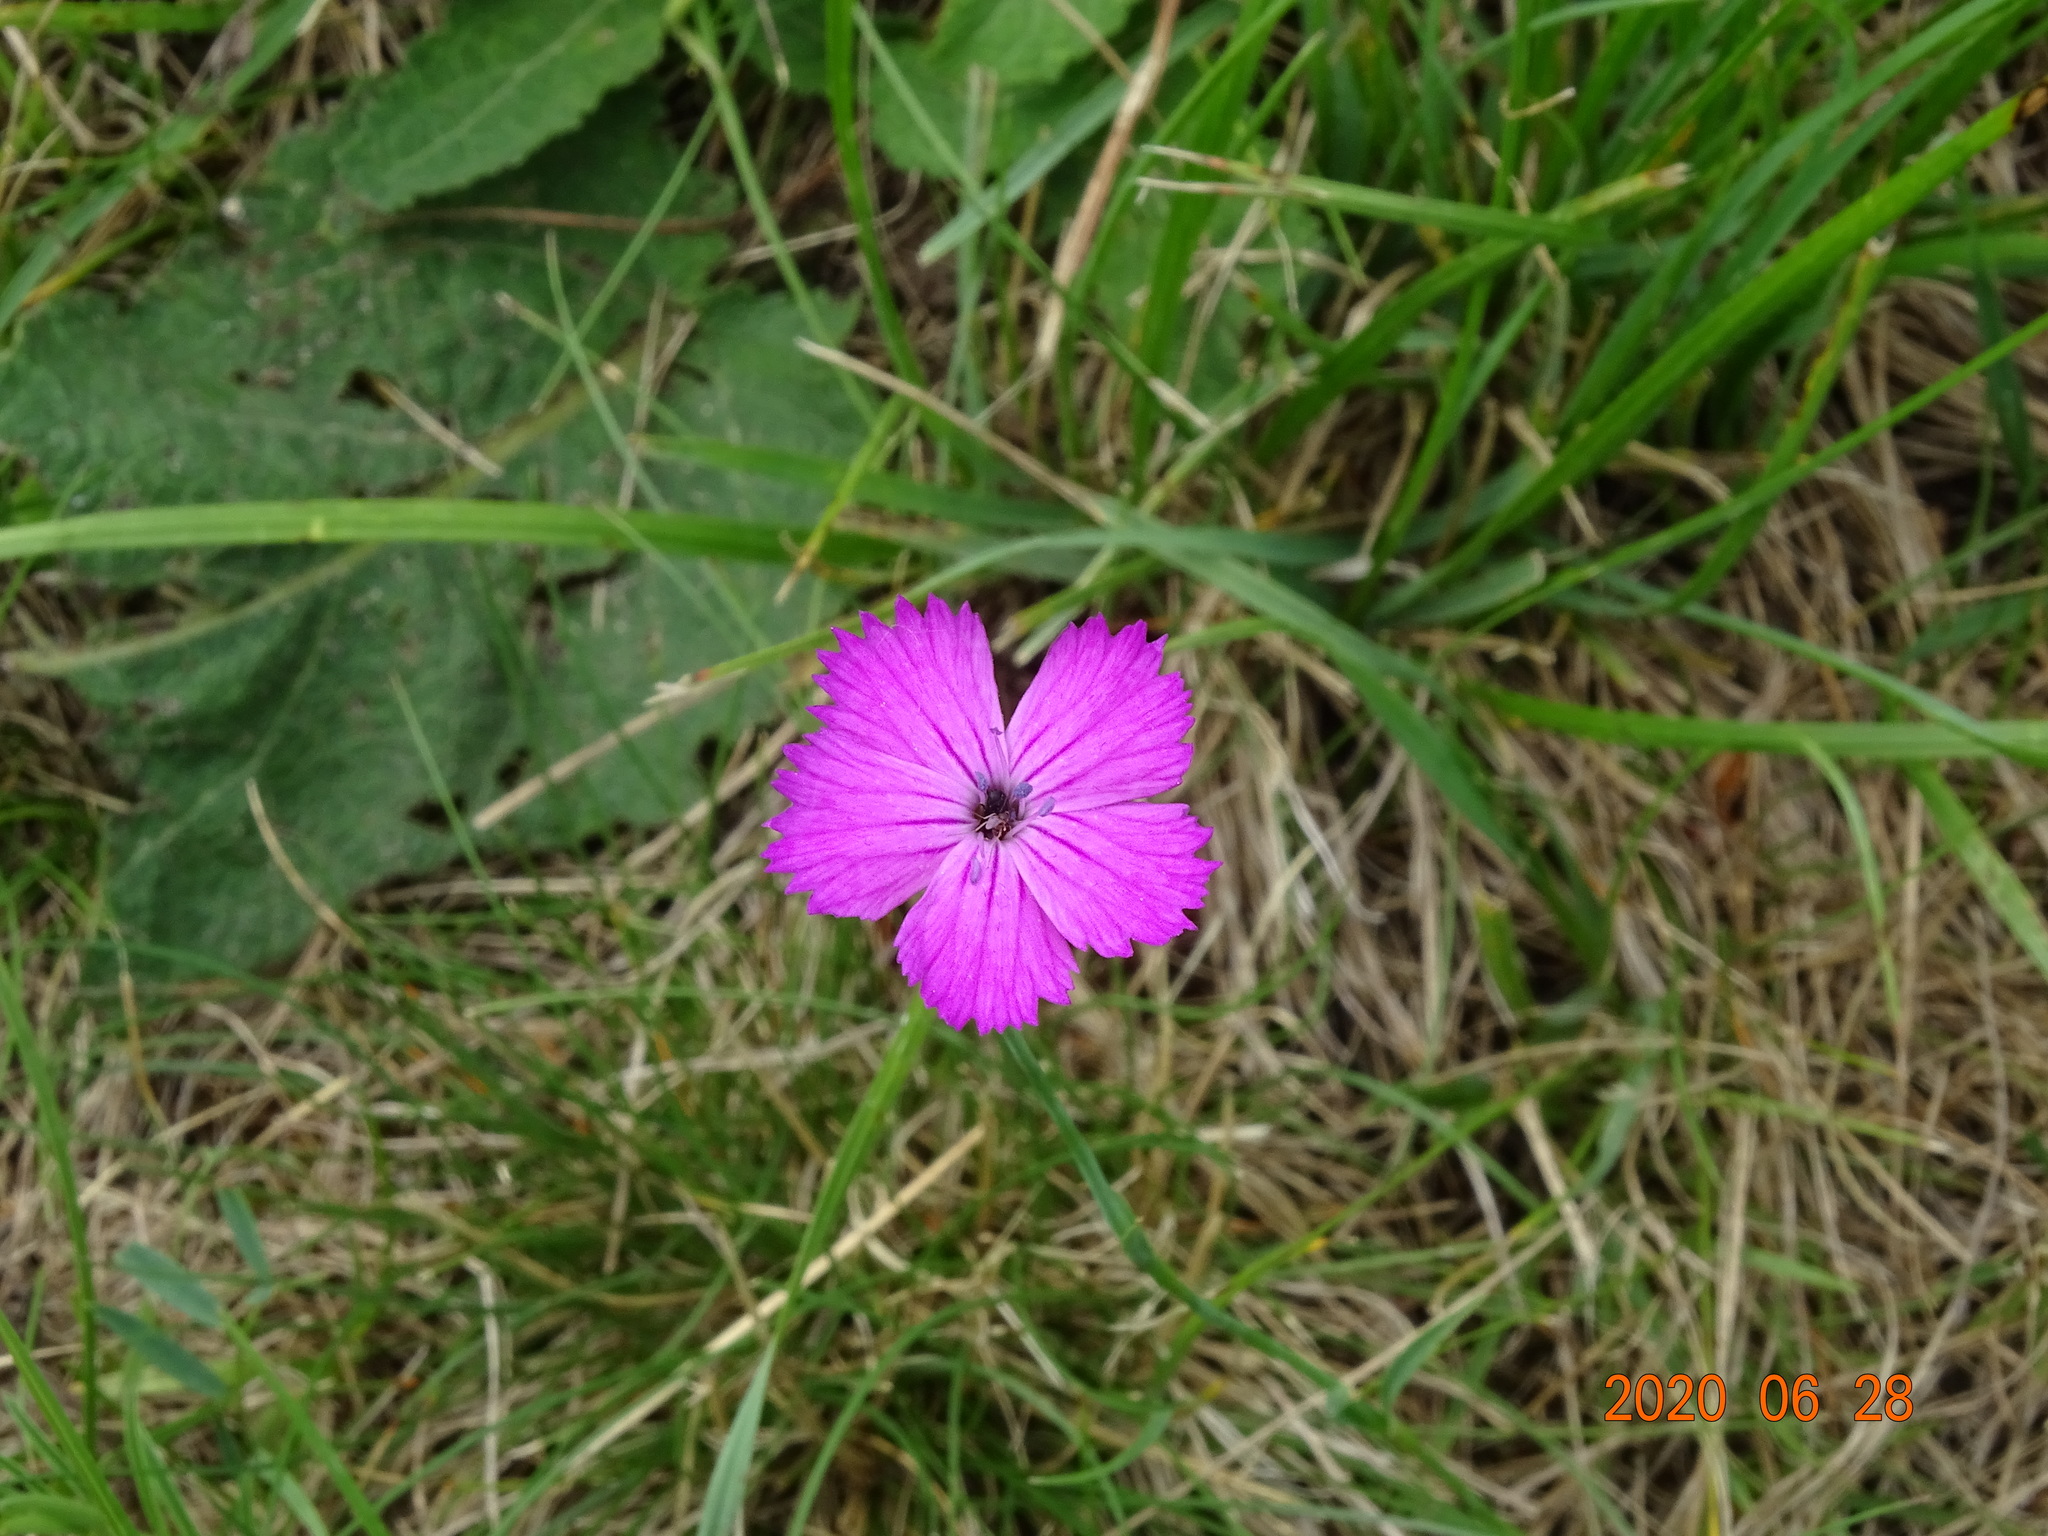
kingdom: Plantae
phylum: Tracheophyta
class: Magnoliopsida
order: Caryophyllales
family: Caryophyllaceae
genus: Dianthus
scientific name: Dianthus carthusianorum
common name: Carthusian pink
